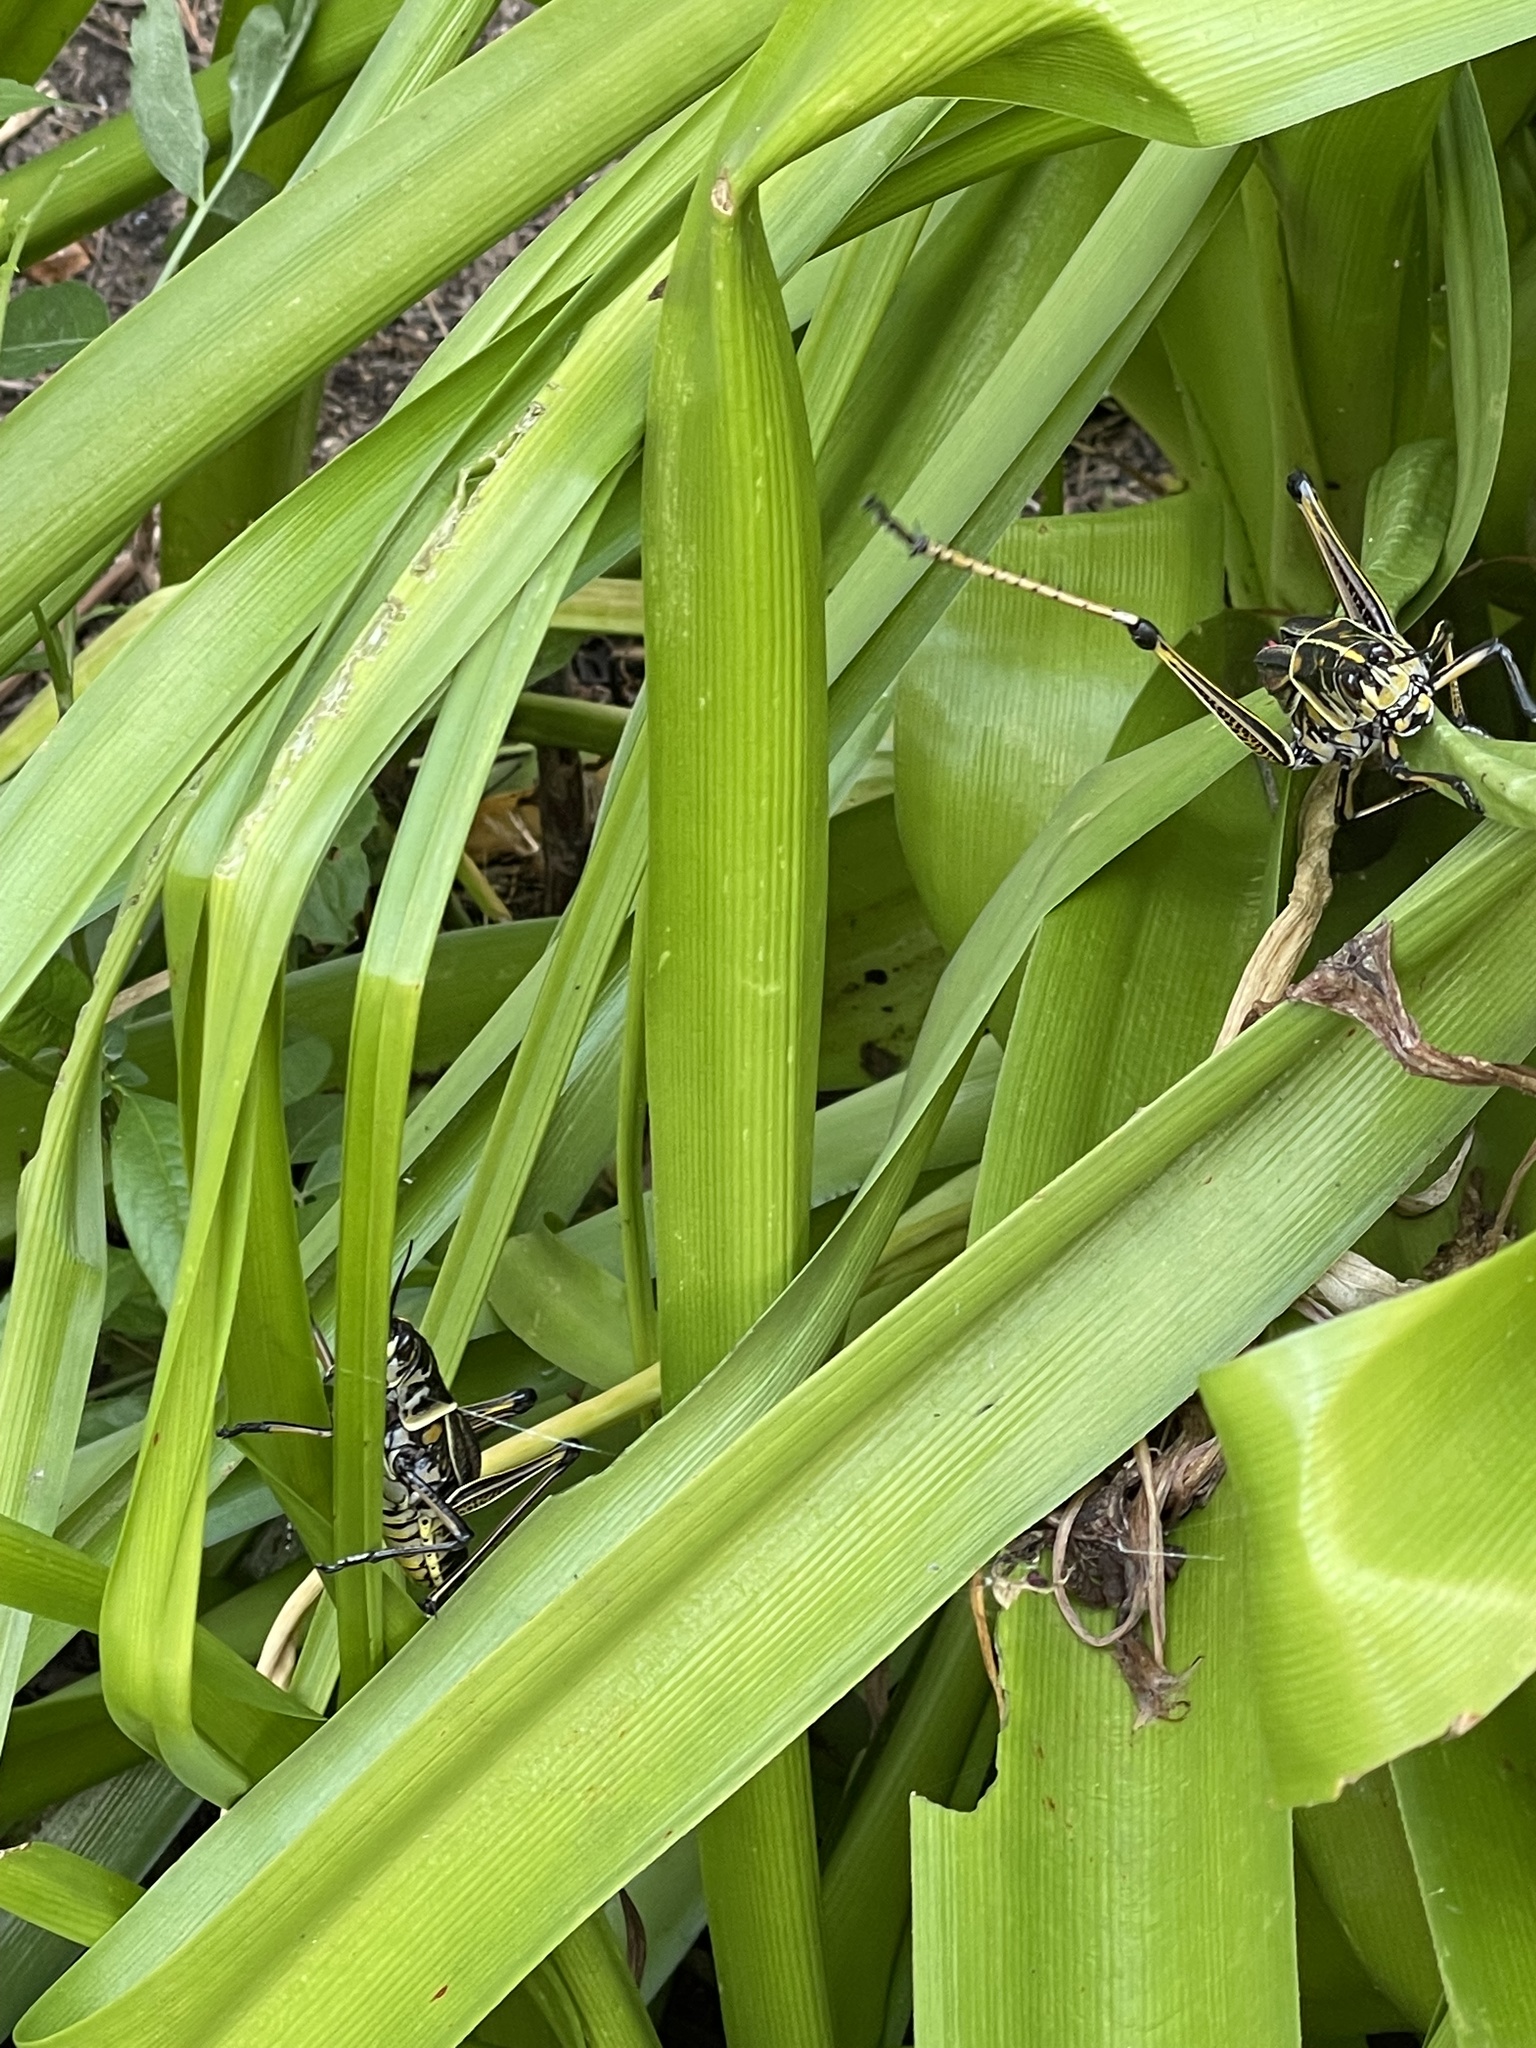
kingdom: Animalia
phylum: Arthropoda
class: Insecta
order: Orthoptera
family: Romaleidae
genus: Romalea
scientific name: Romalea microptera
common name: Eastern lubber grasshopper
